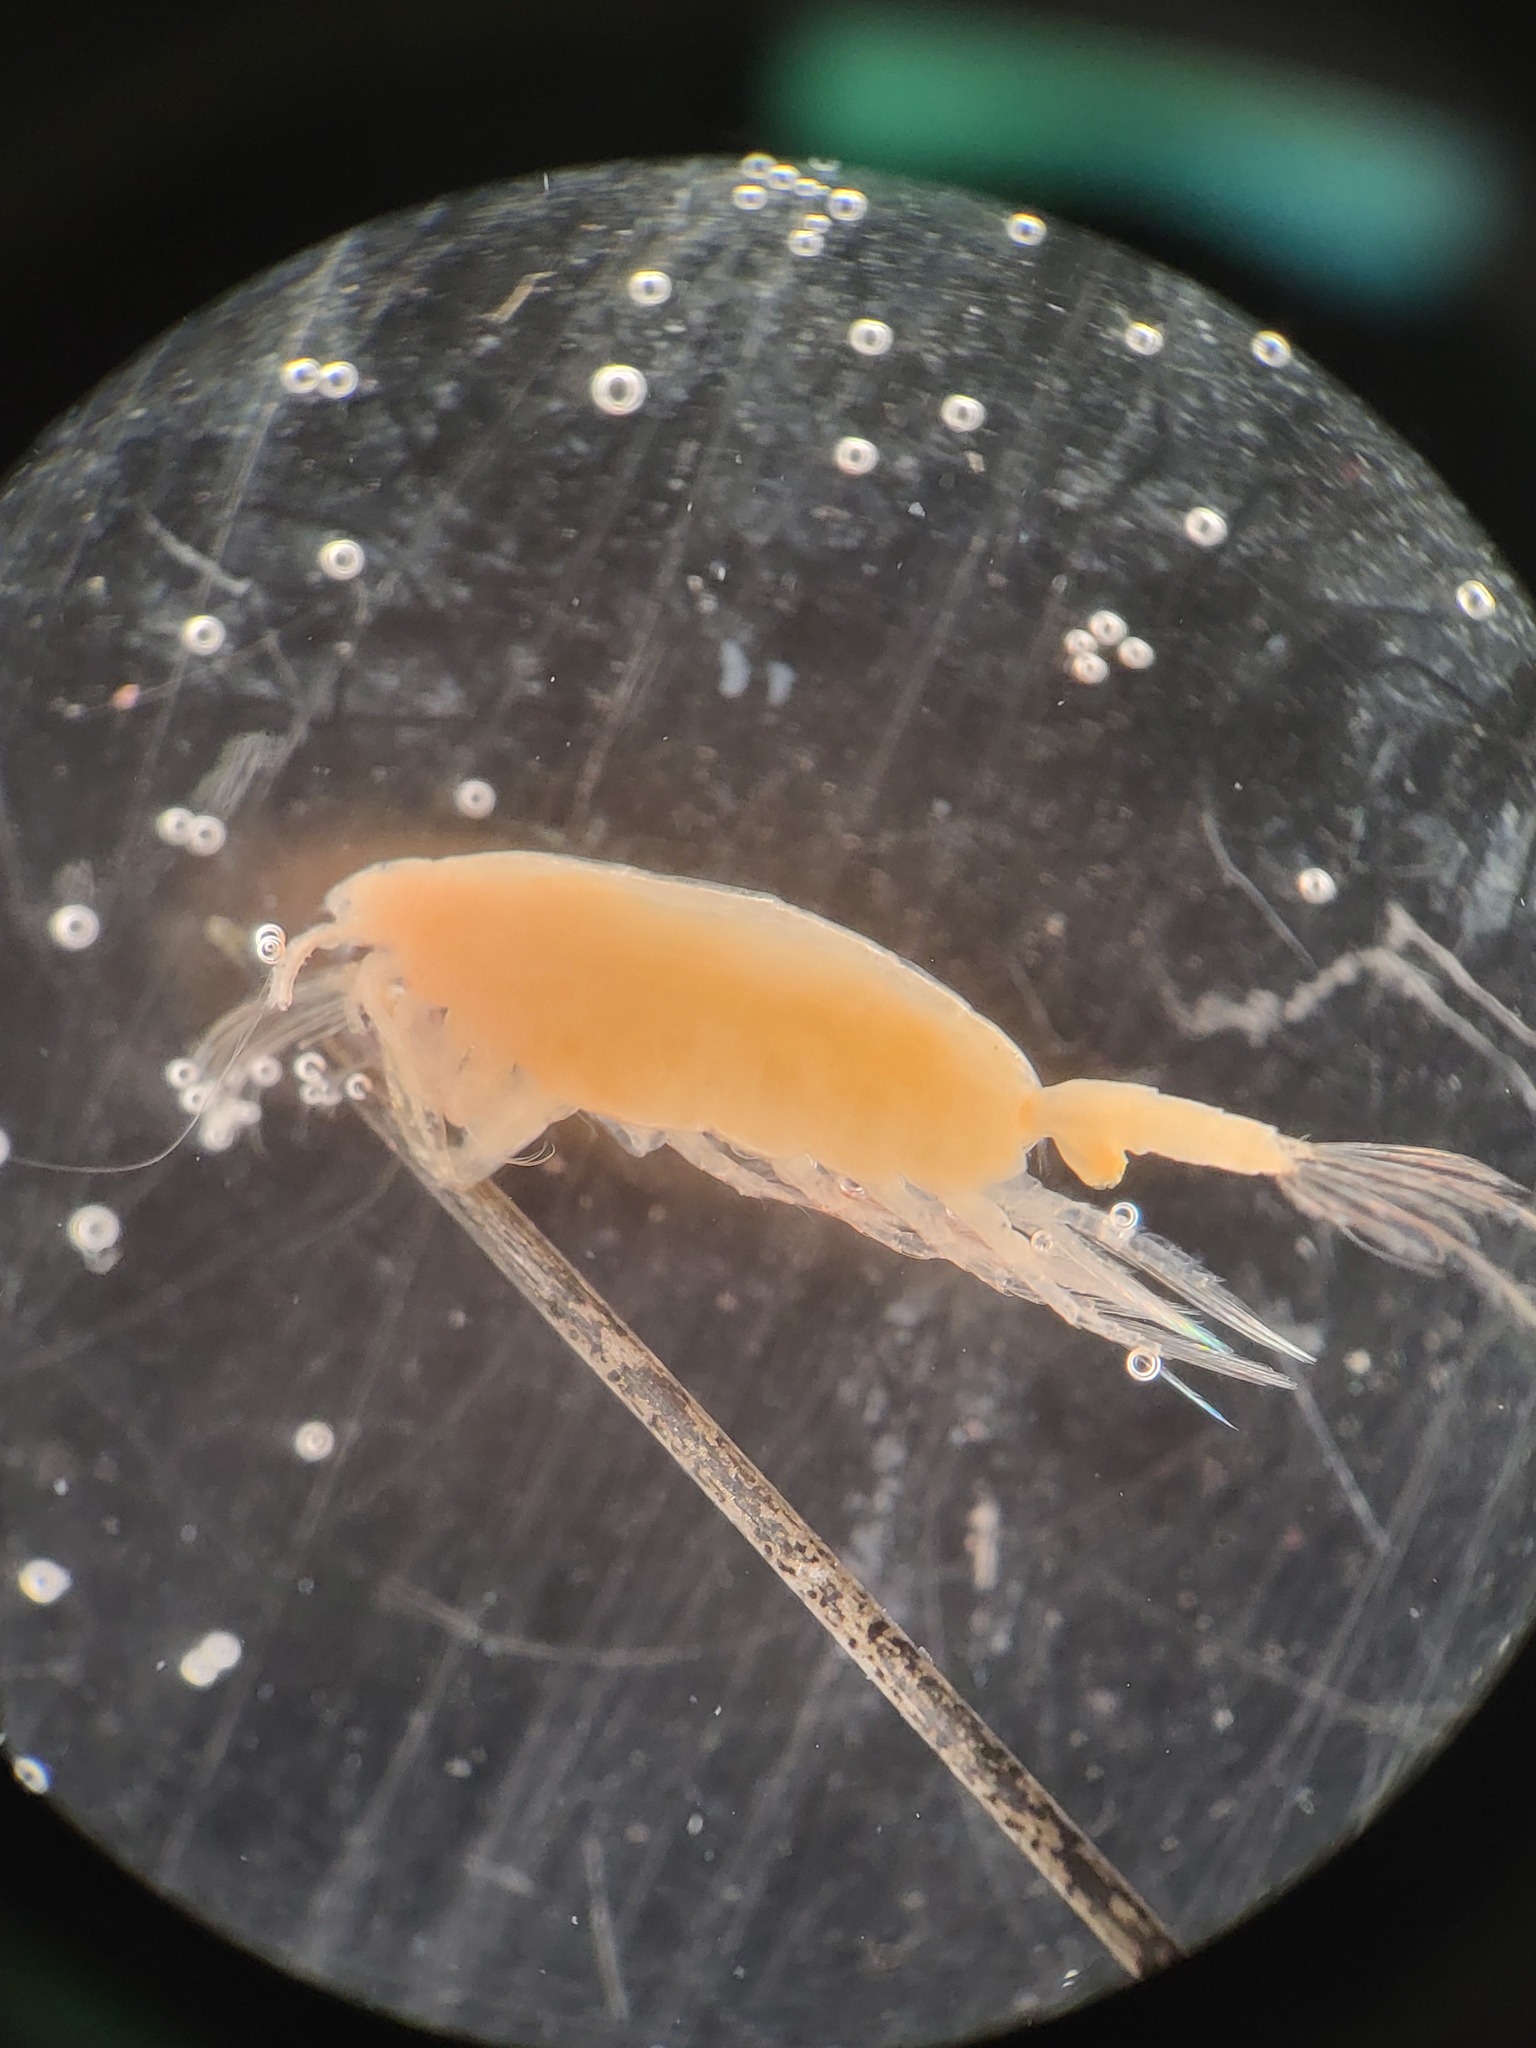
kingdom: Animalia
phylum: Arthropoda
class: Copepoda
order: Calanoida
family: Euchaetidae
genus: Paraeuchaeta
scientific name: Paraeuchaeta glacialis
